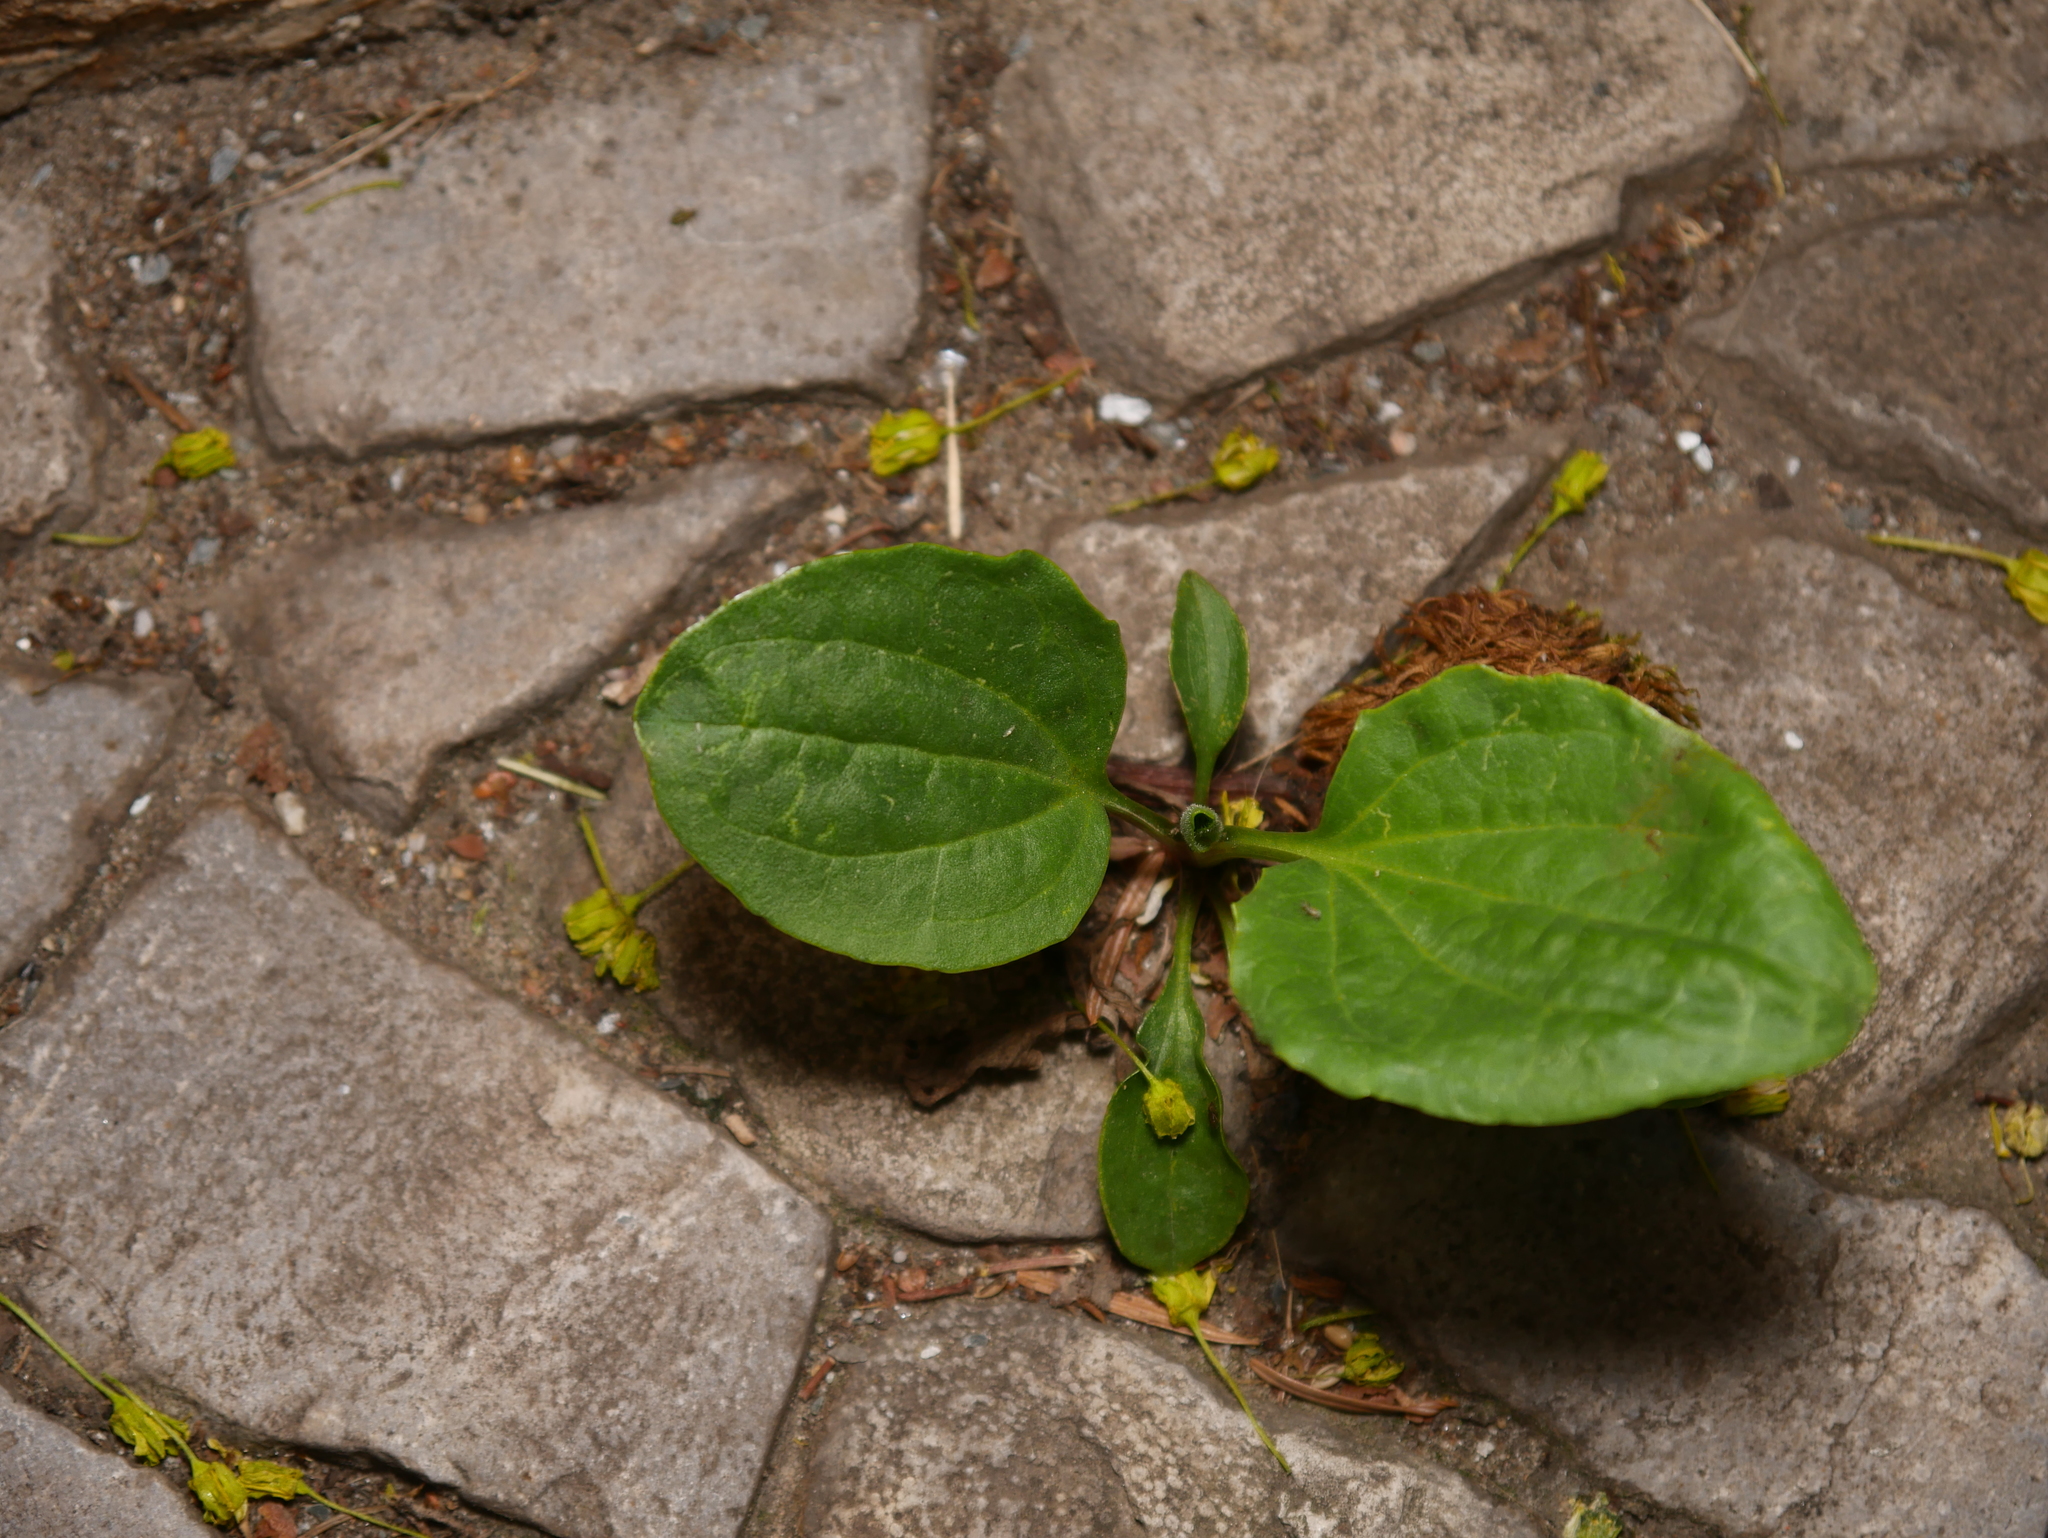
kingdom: Plantae
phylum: Tracheophyta
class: Magnoliopsida
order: Lamiales
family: Plantaginaceae
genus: Plantago
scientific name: Plantago major
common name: Common plantain
